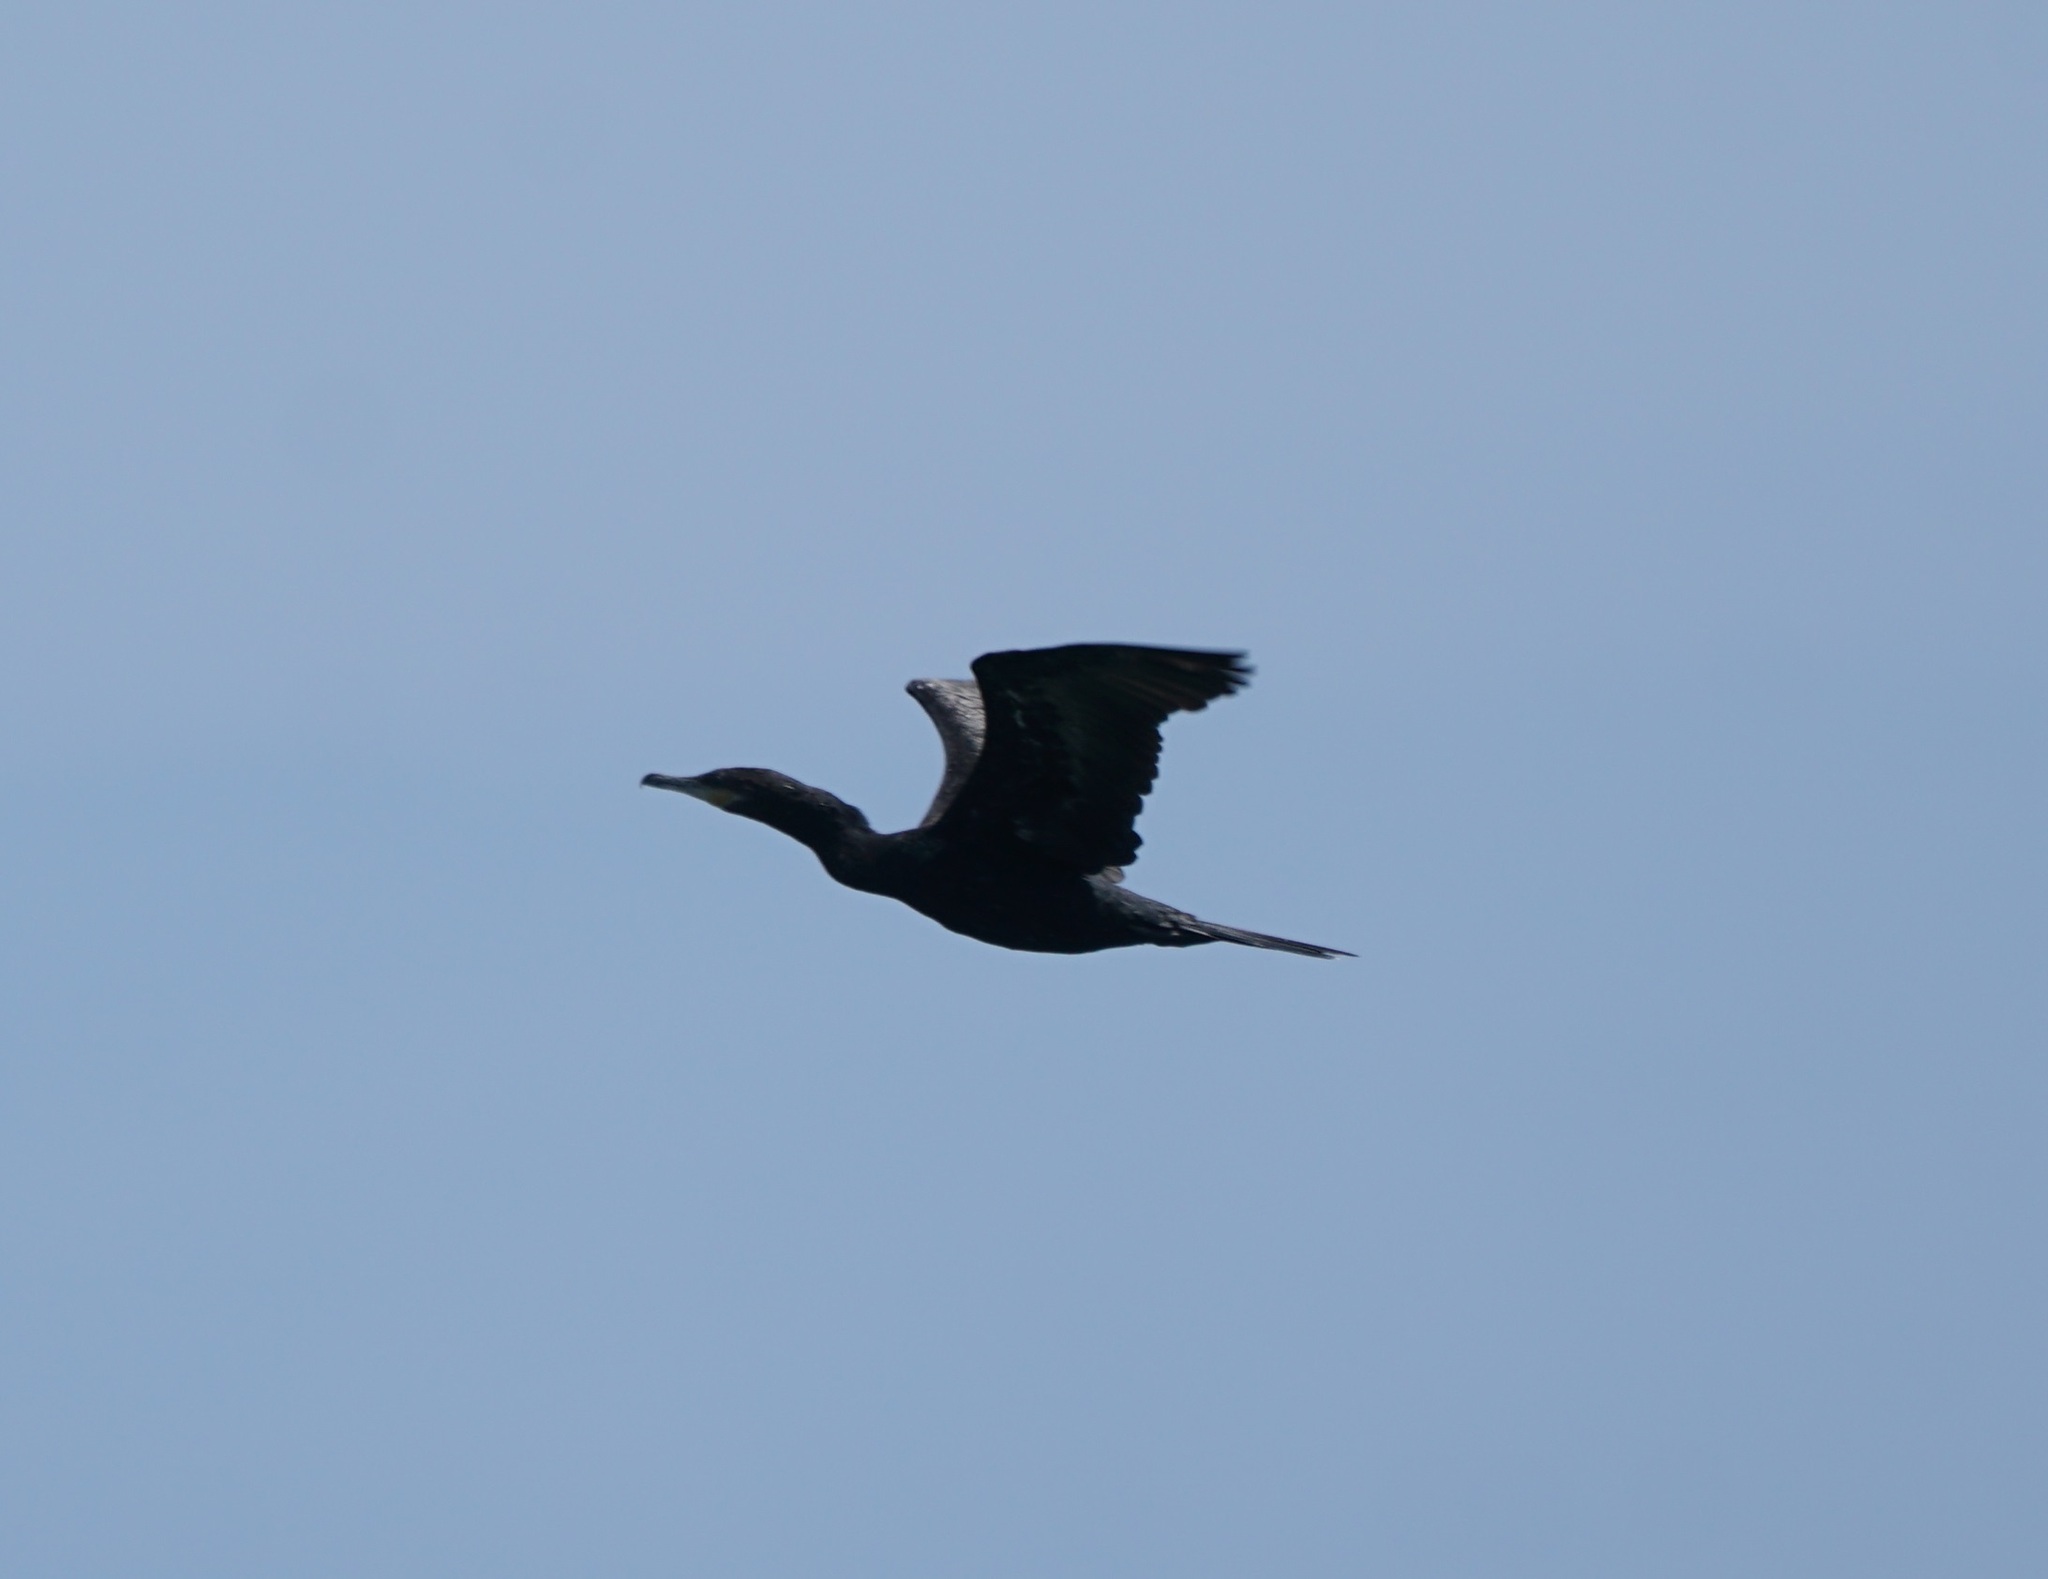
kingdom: Animalia
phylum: Chordata
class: Aves
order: Suliformes
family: Phalacrocoracidae
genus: Phalacrocorax
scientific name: Phalacrocorax brasilianus
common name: Neotropic cormorant
